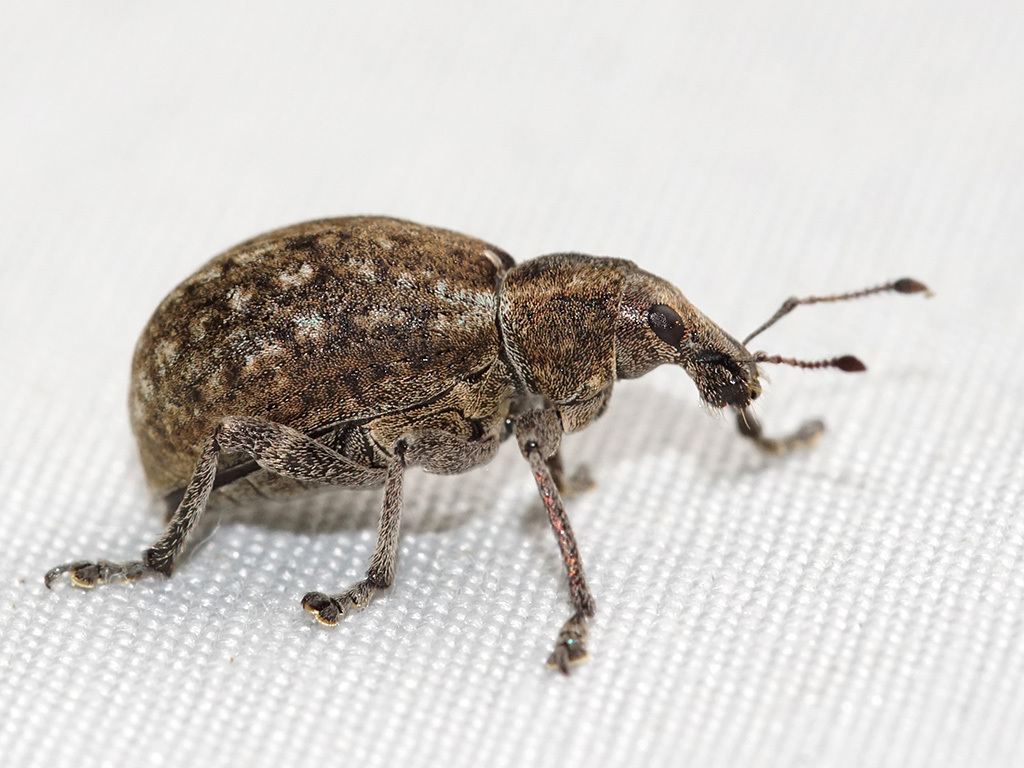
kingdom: Animalia
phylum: Arthropoda
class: Insecta
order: Coleoptera
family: Curculionidae
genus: Liophloeus
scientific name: Liophloeus tessulatus
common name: Weevil
